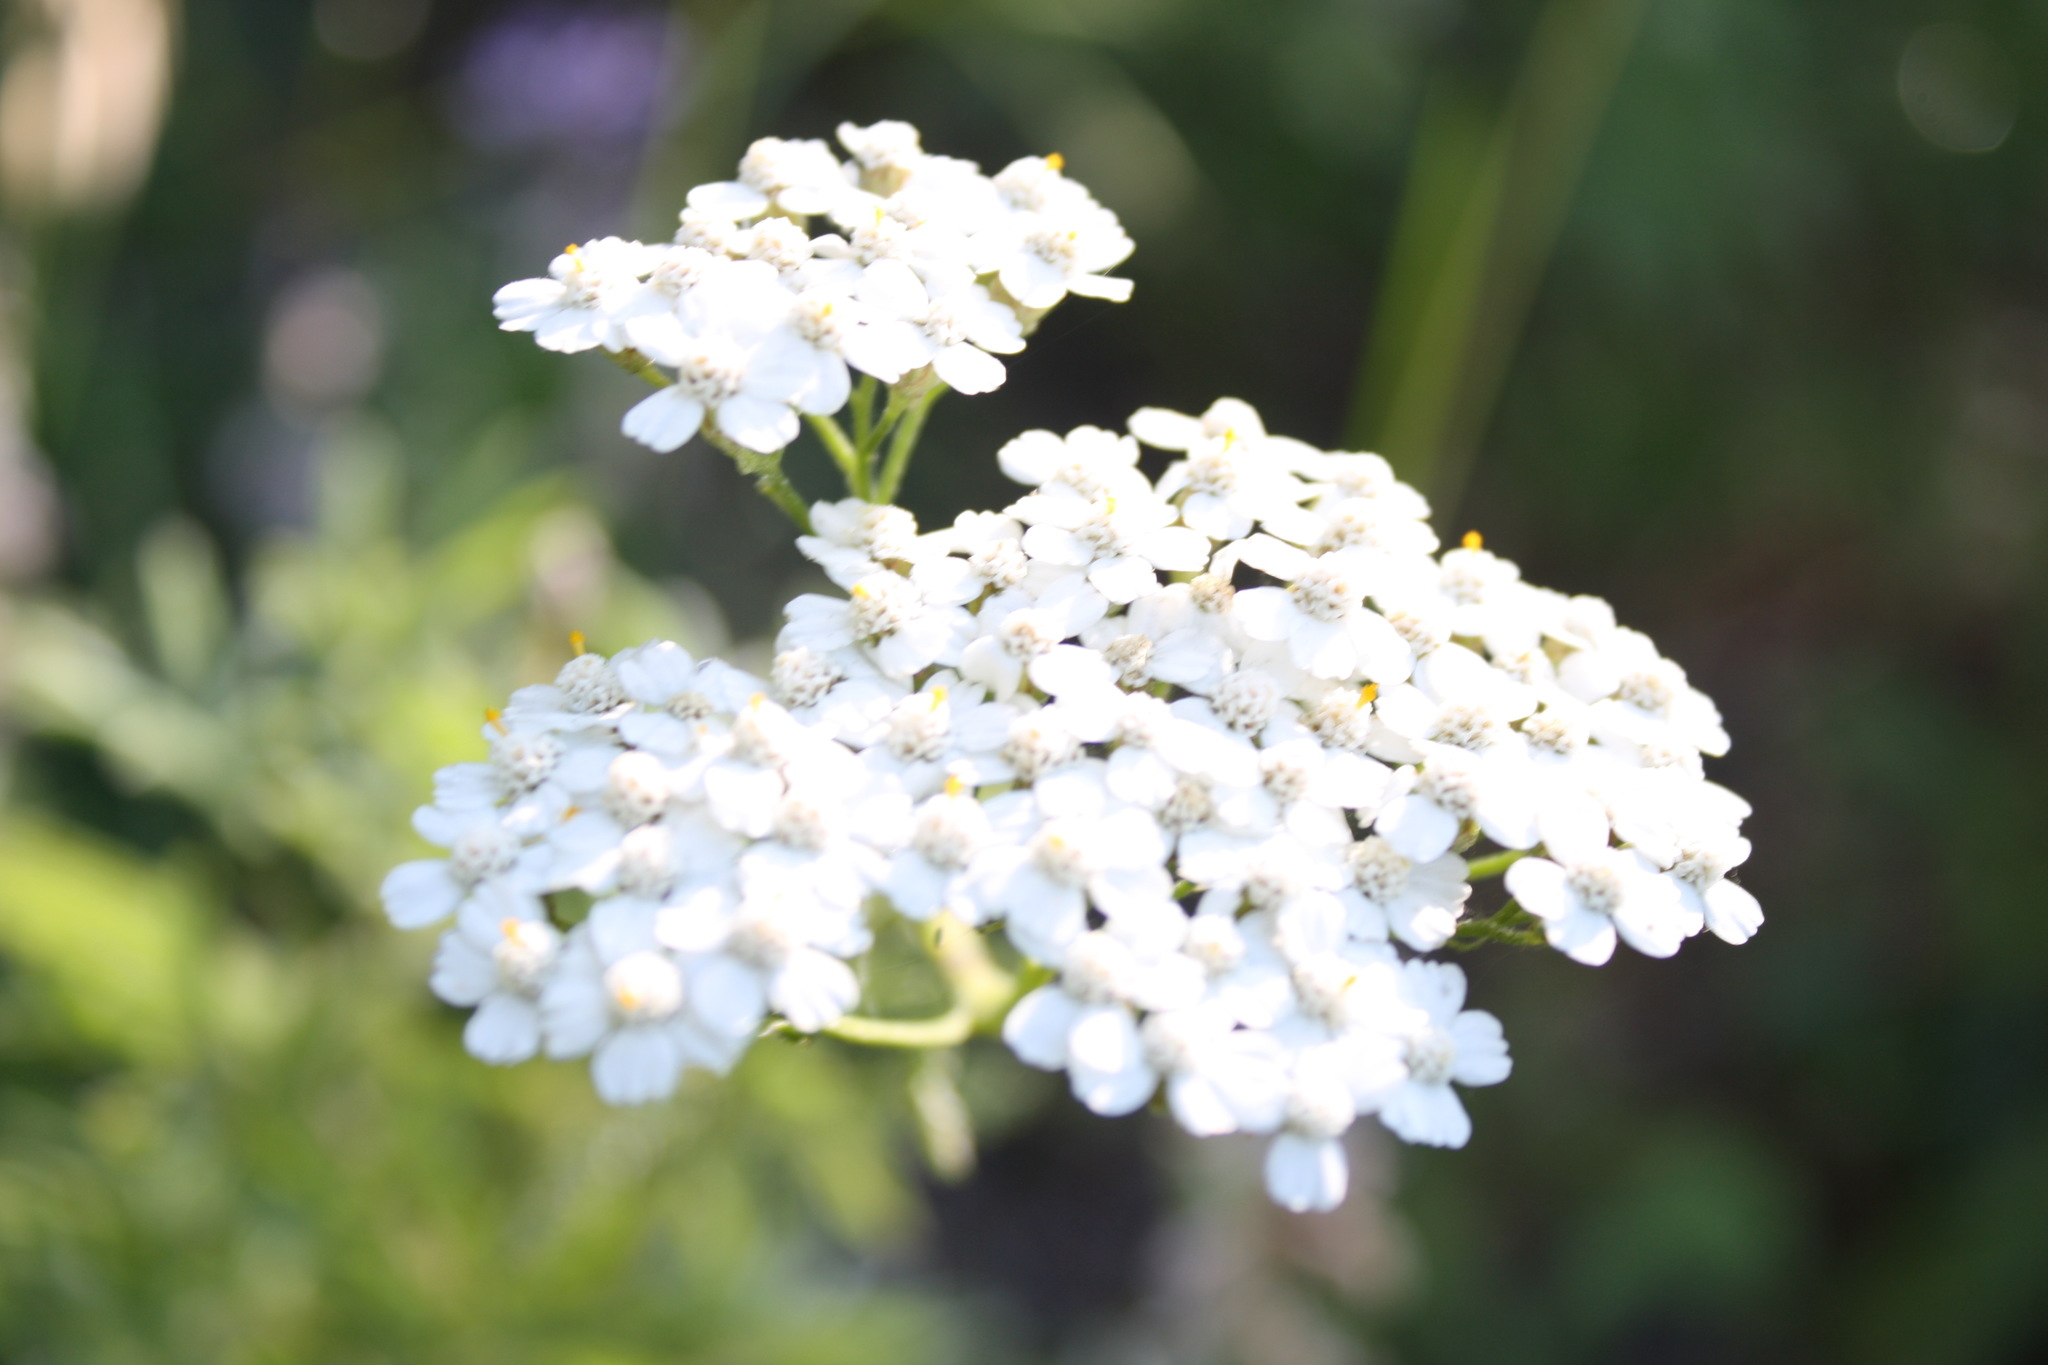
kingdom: Plantae
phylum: Tracheophyta
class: Magnoliopsida
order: Asterales
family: Asteraceae
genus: Achillea
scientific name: Achillea millefolium
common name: Yarrow
